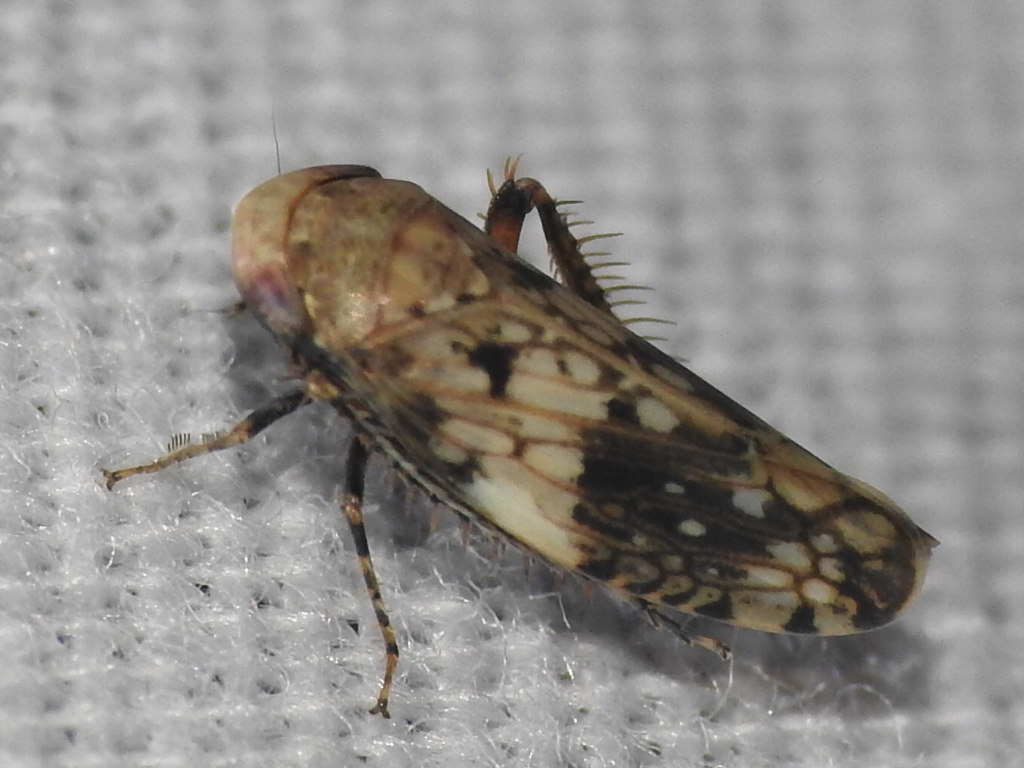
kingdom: Animalia
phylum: Arthropoda
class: Insecta
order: Hemiptera
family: Cicadellidae
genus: Menosoma
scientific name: Menosoma cinctum
